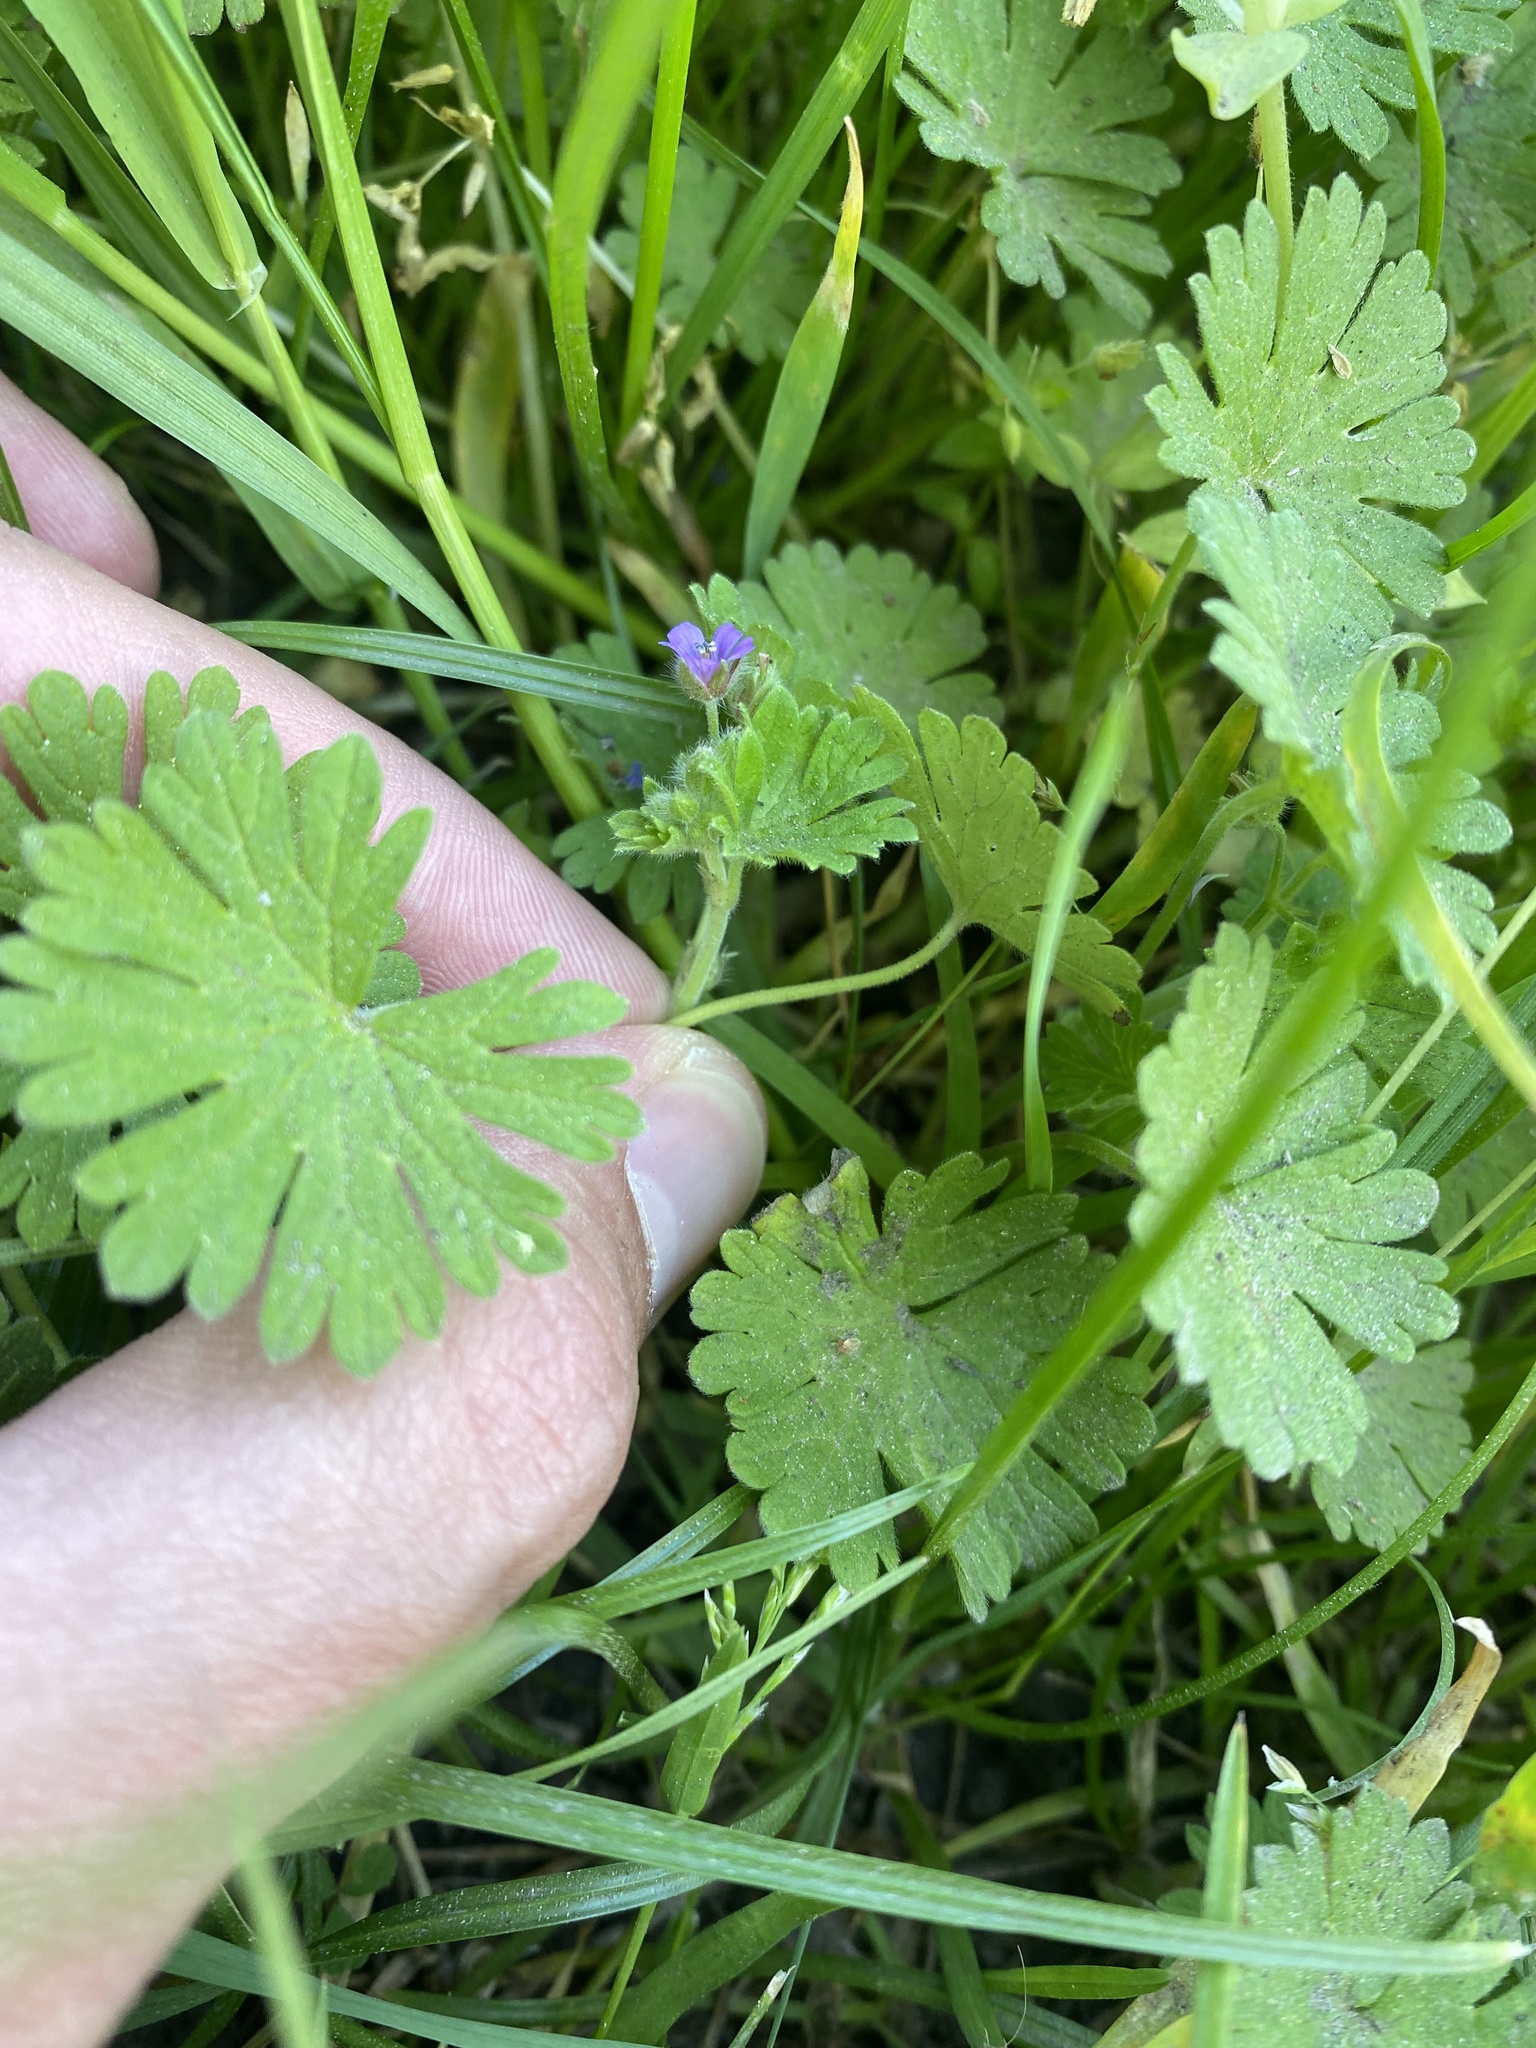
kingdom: Plantae
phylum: Tracheophyta
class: Magnoliopsida
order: Geraniales
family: Geraniaceae
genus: Geranium
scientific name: Geranium pusillum
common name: Small geranium
